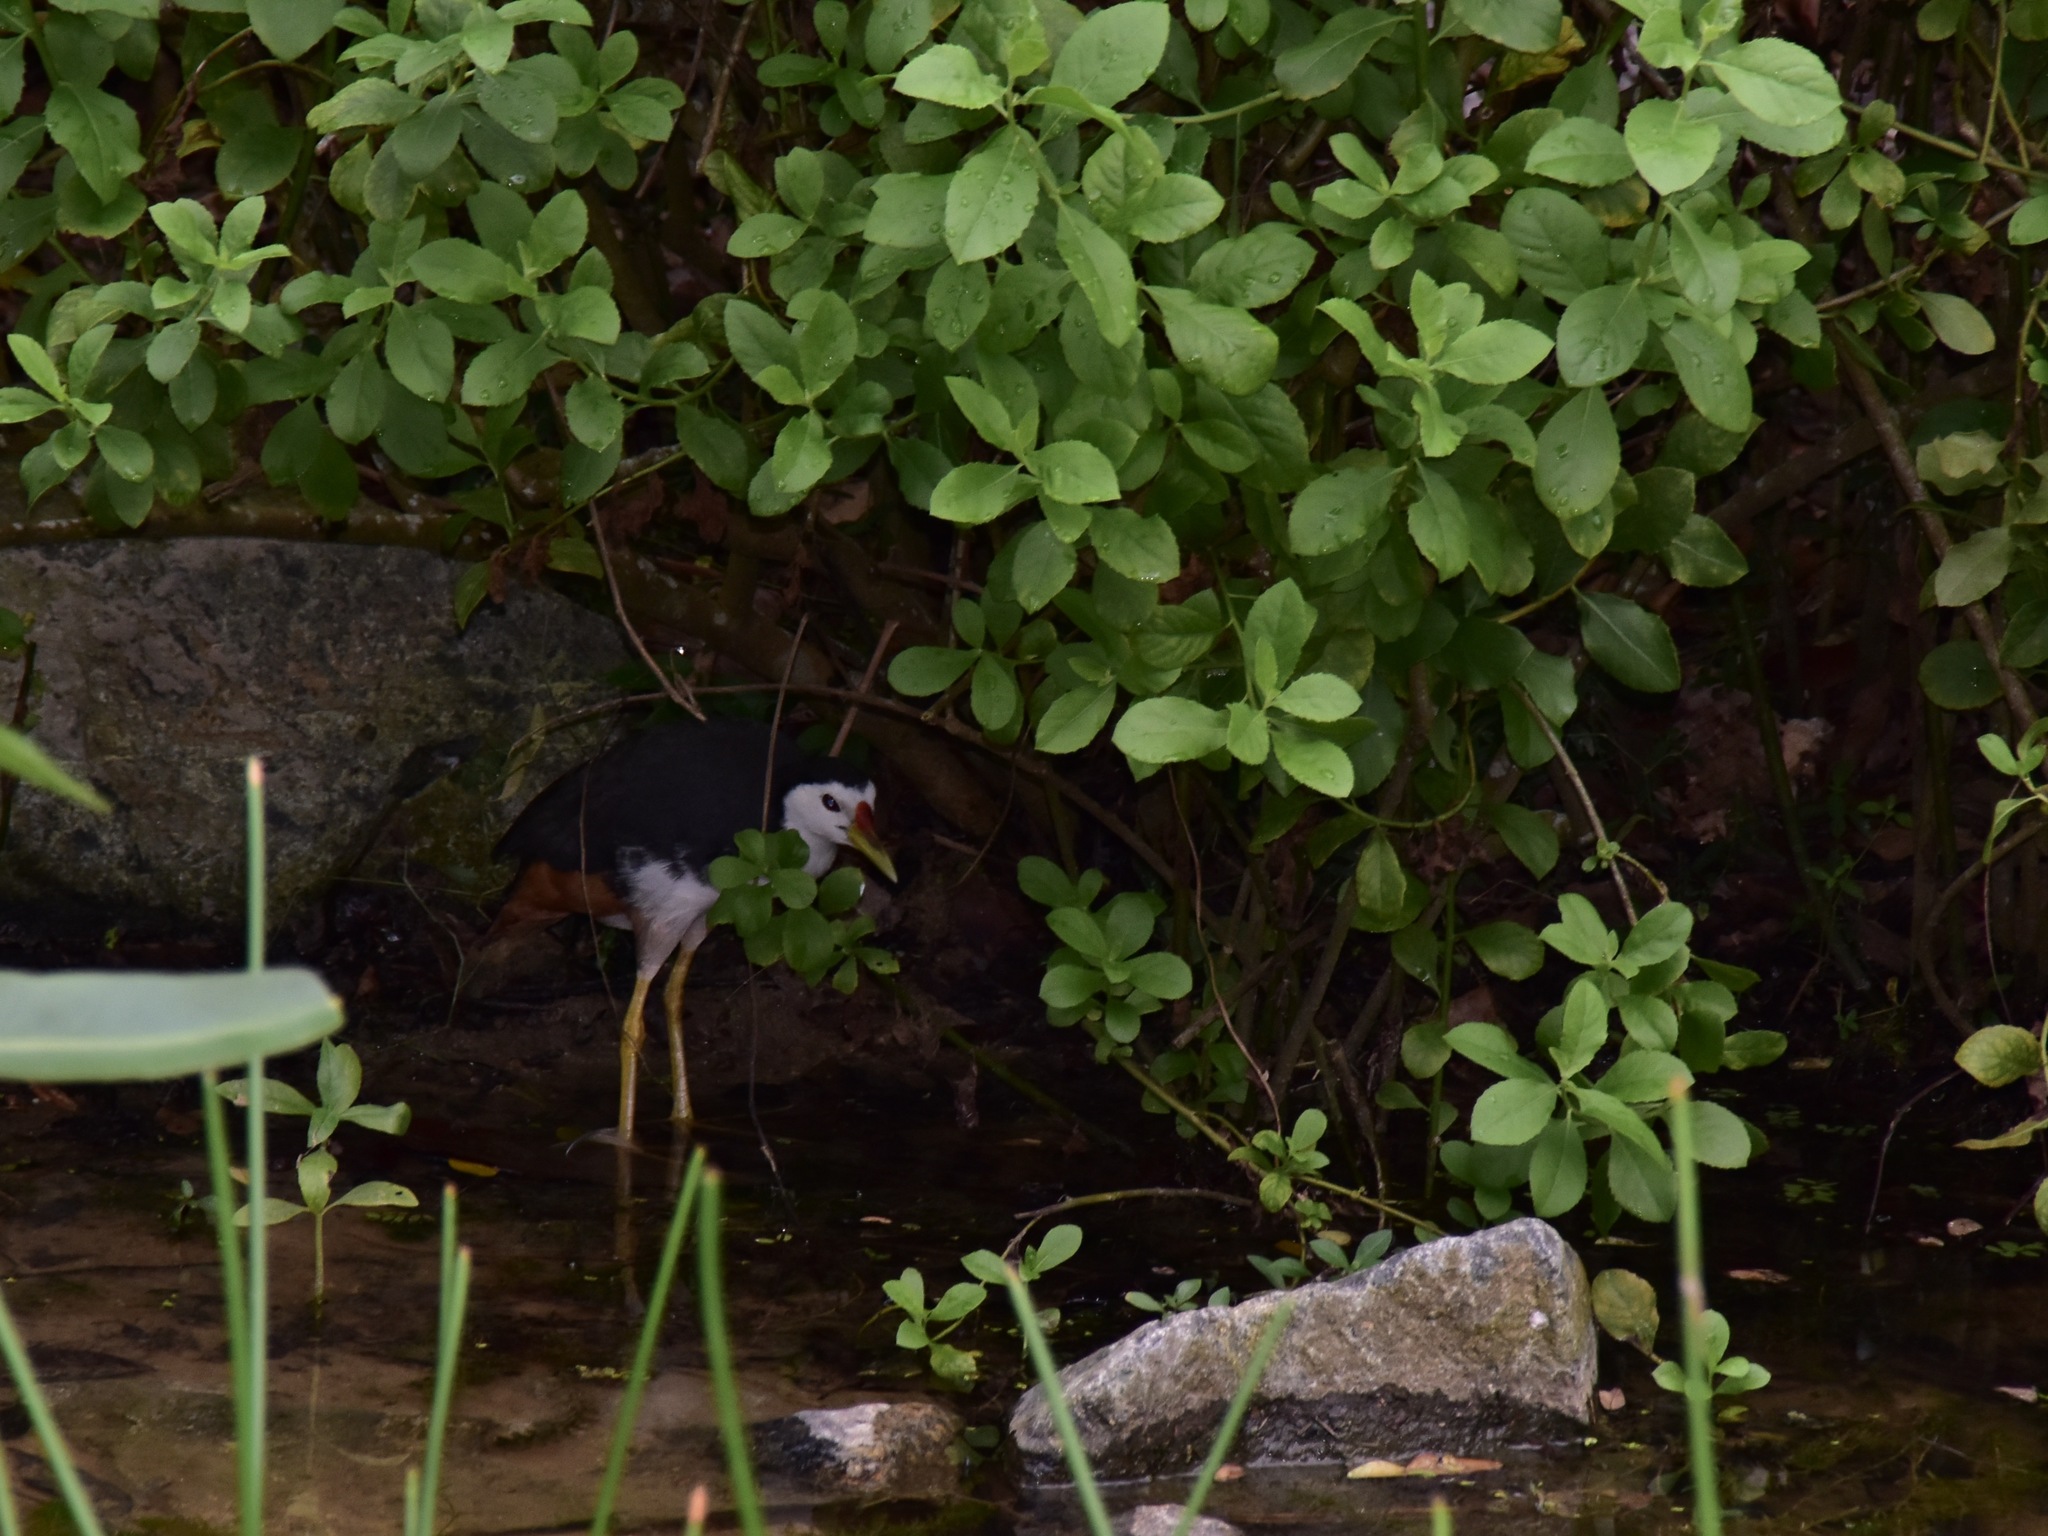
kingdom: Animalia
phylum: Chordata
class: Aves
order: Gruiformes
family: Rallidae
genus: Amaurornis
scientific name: Amaurornis phoenicurus
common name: White-breasted waterhen
